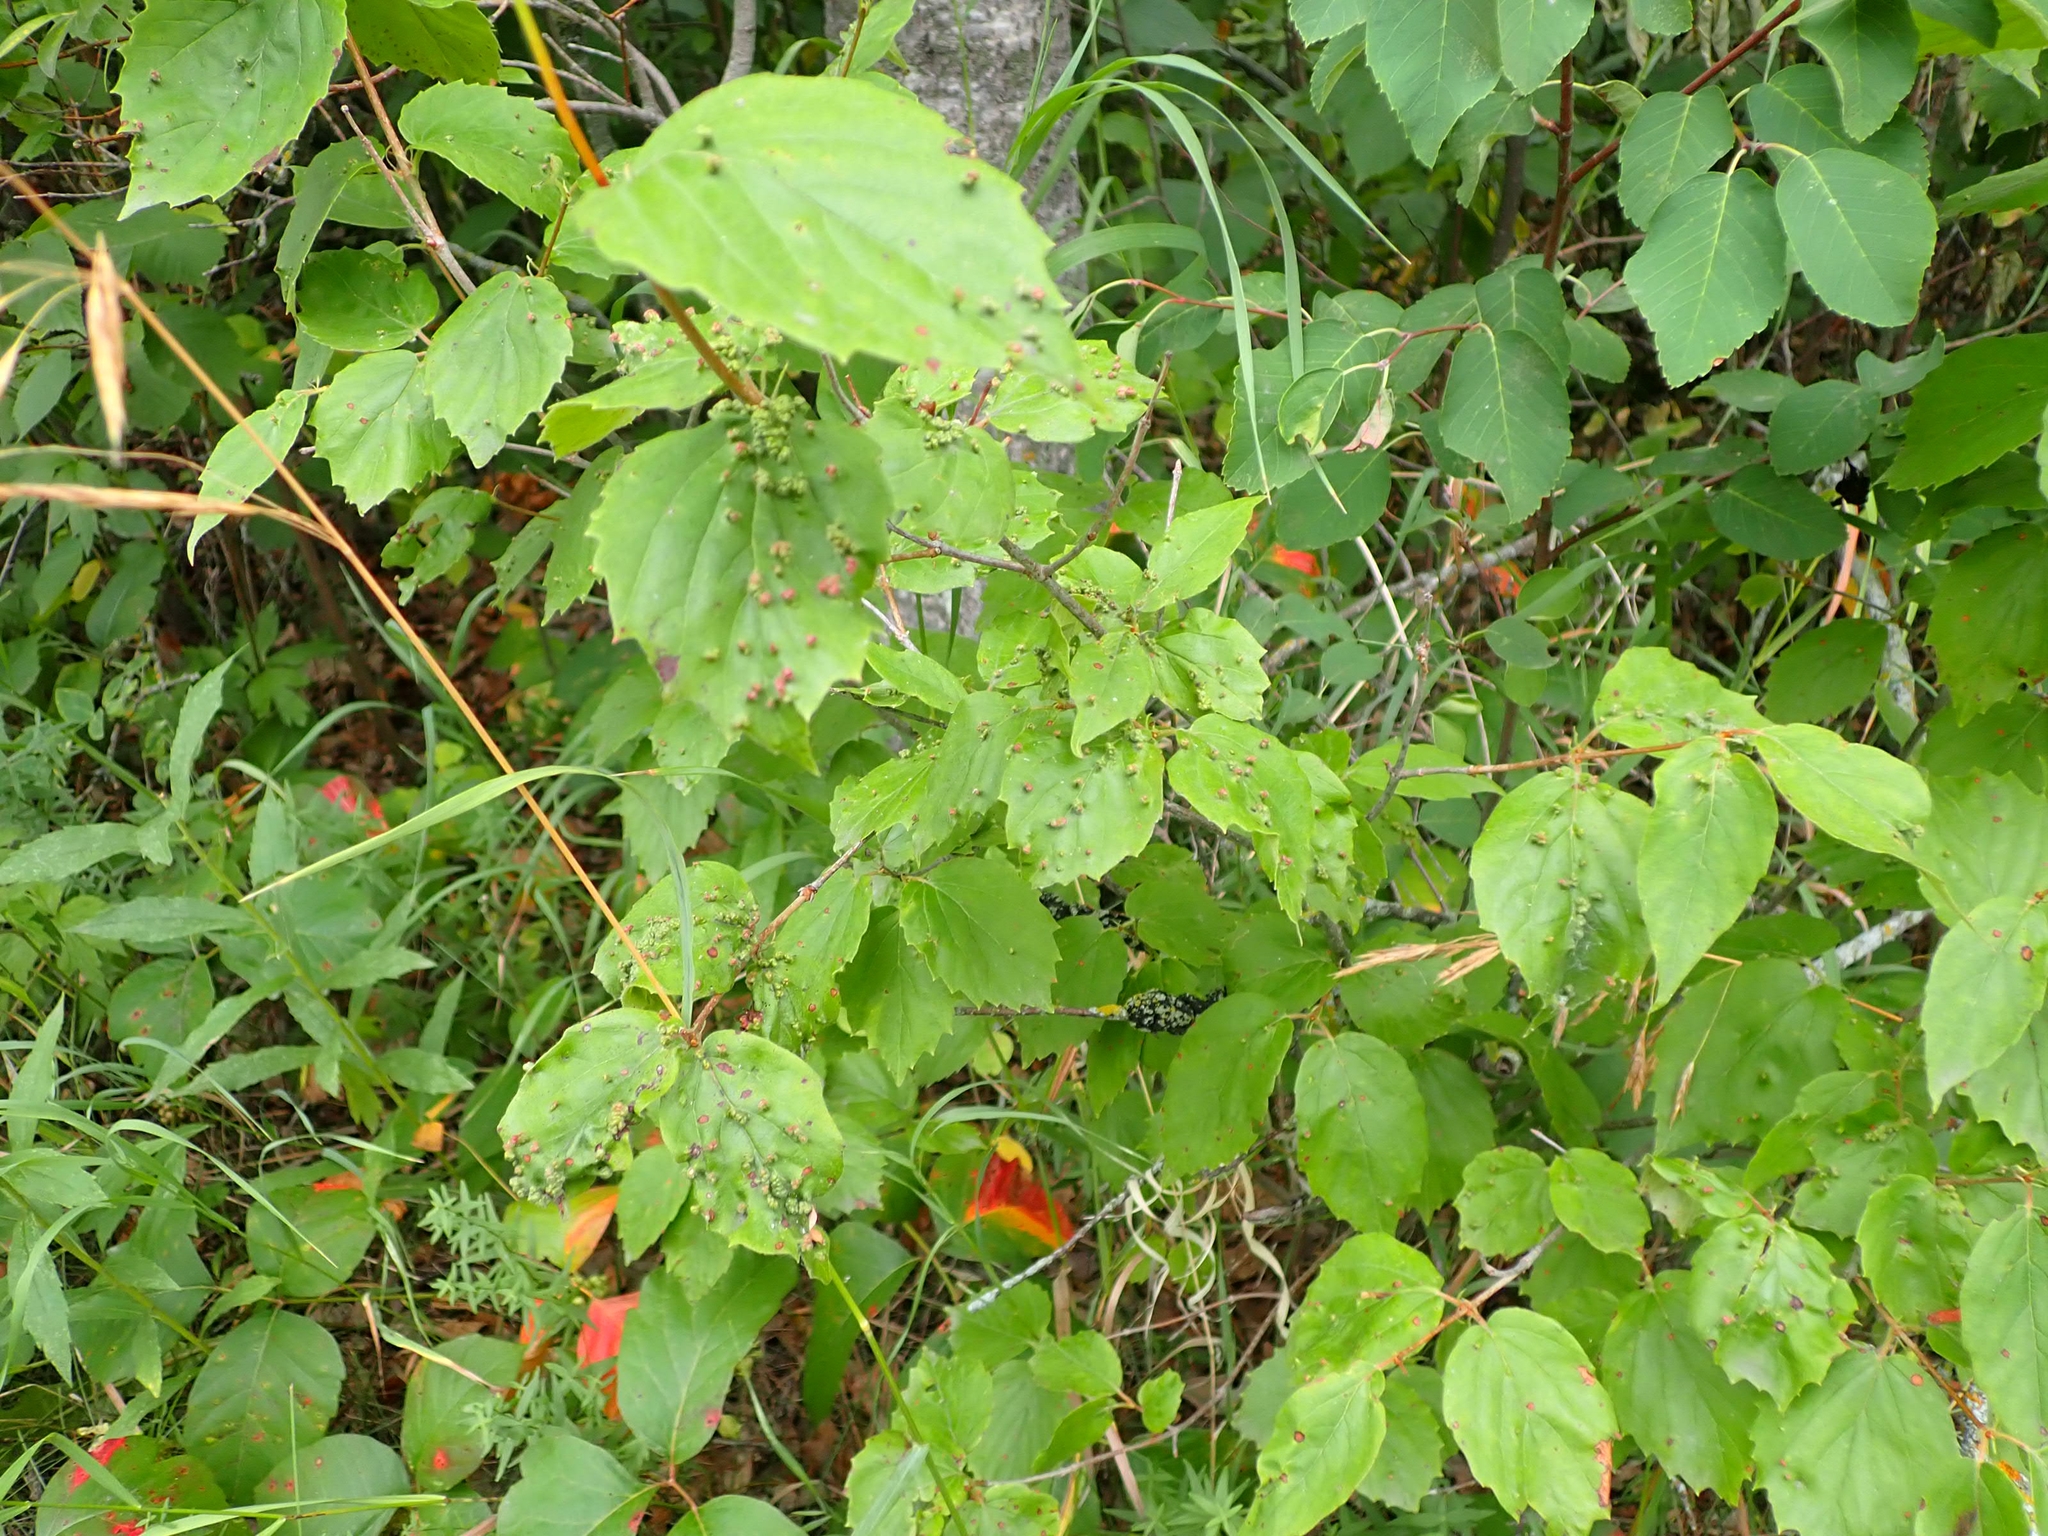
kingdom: Plantae
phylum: Tracheophyta
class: Magnoliopsida
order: Dipsacales
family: Viburnaceae
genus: Viburnum
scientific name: Viburnum rafinesqueanum
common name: Downy arrow-wood
